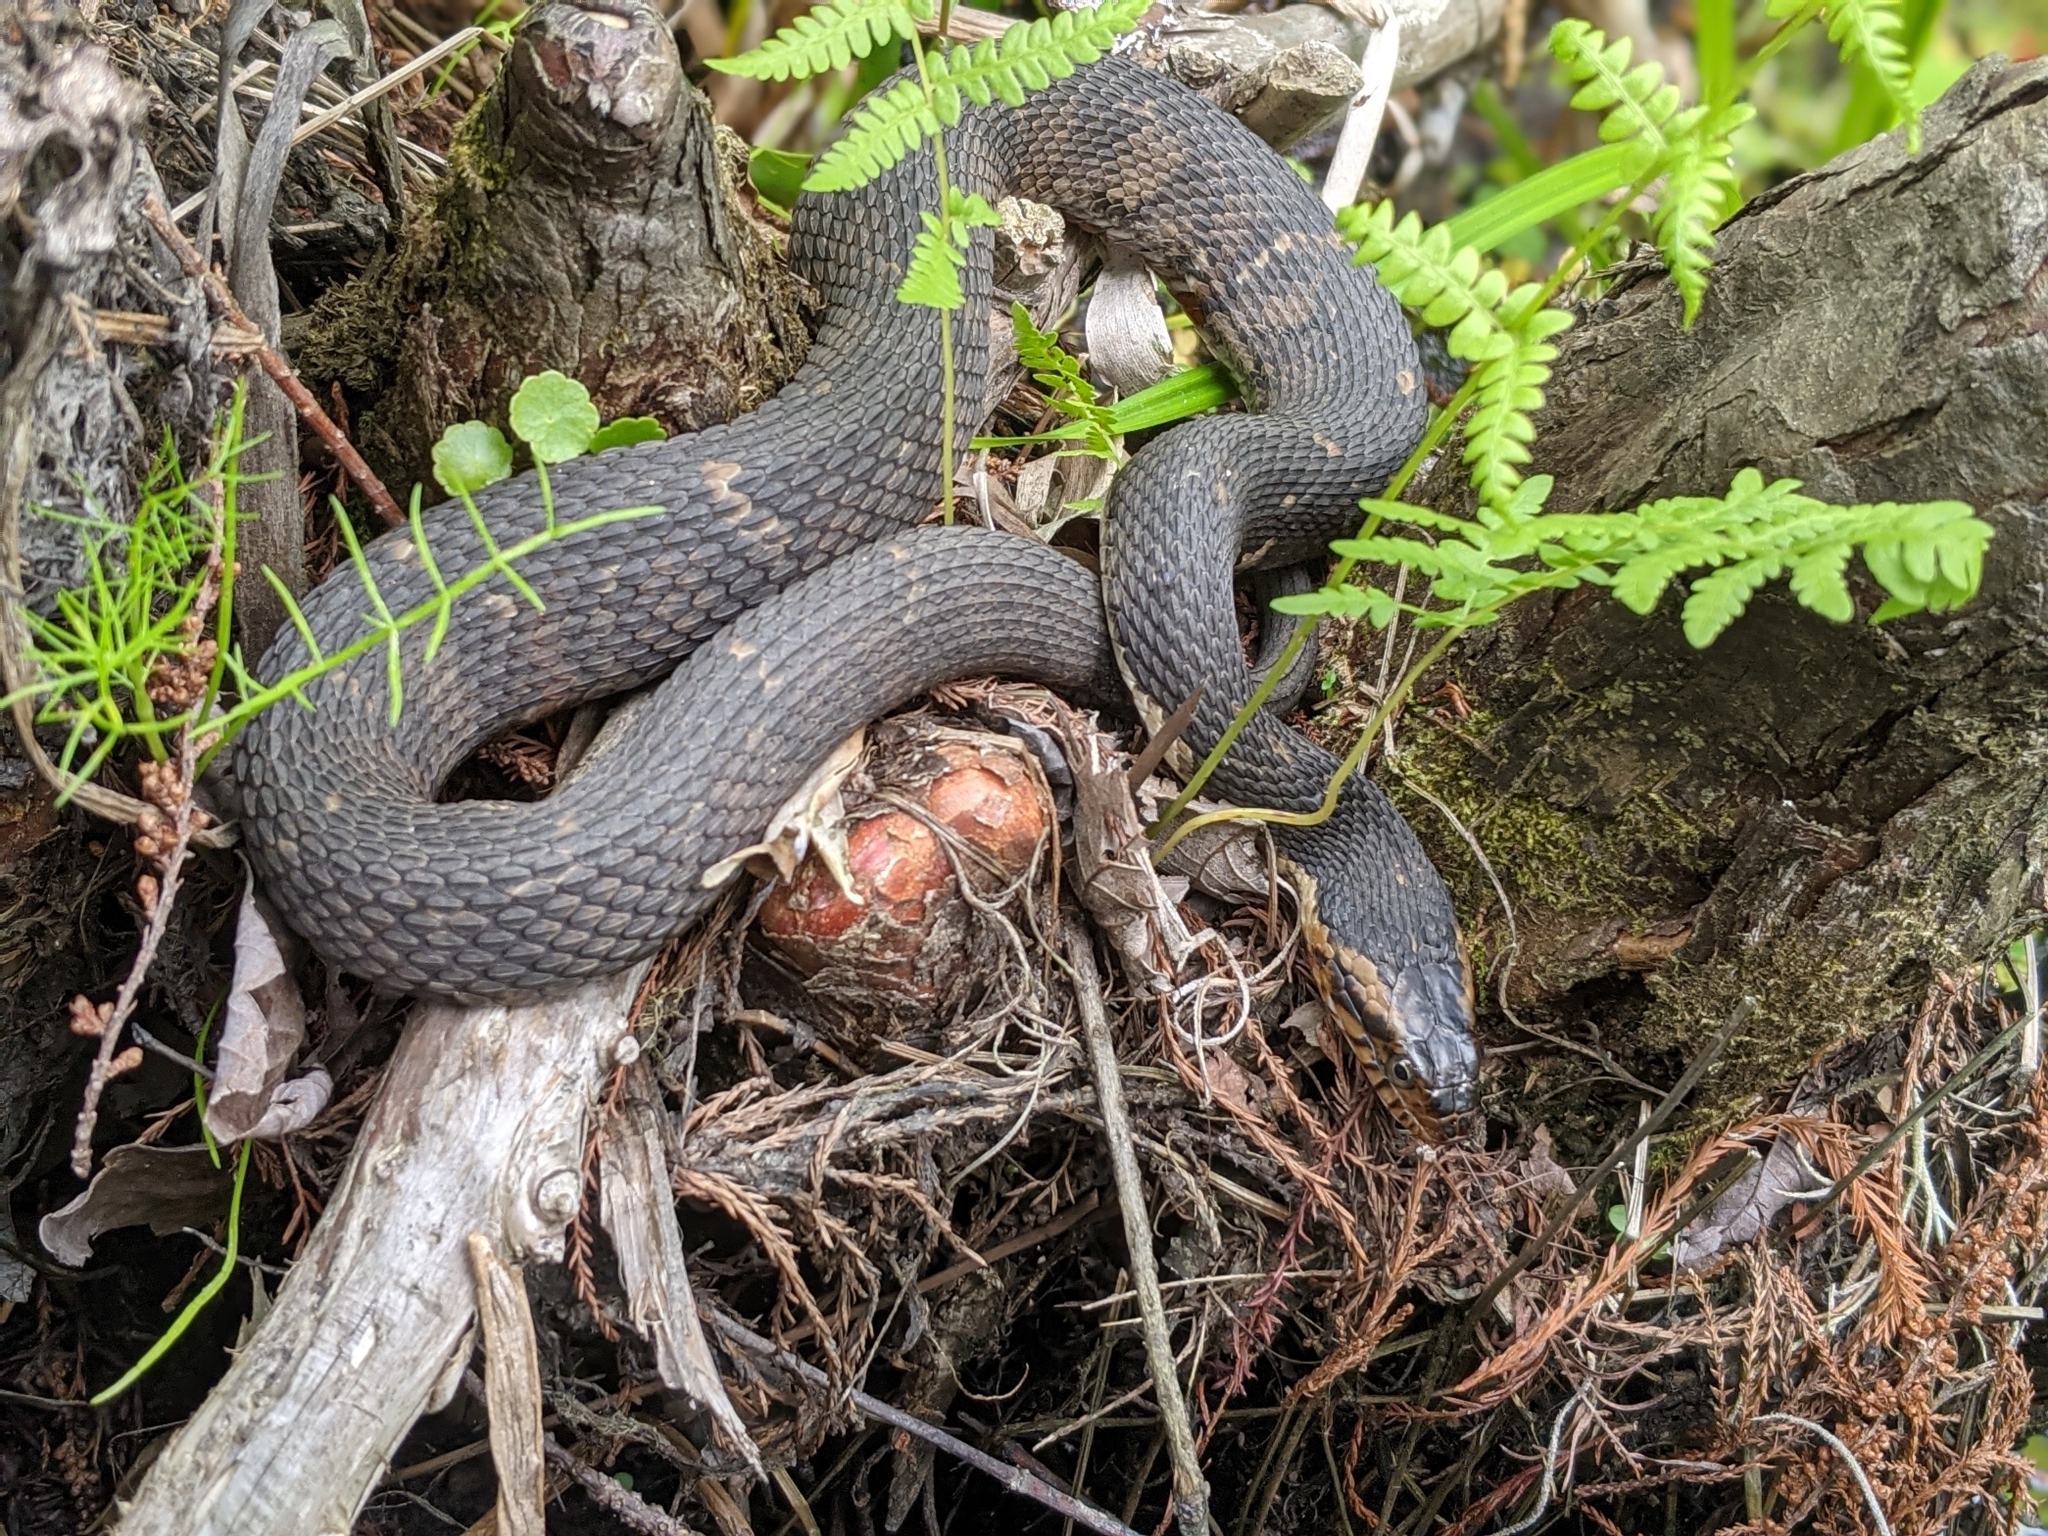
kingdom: Animalia
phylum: Chordata
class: Squamata
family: Colubridae
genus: Nerodia
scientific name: Nerodia fasciata
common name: Southern water snake
